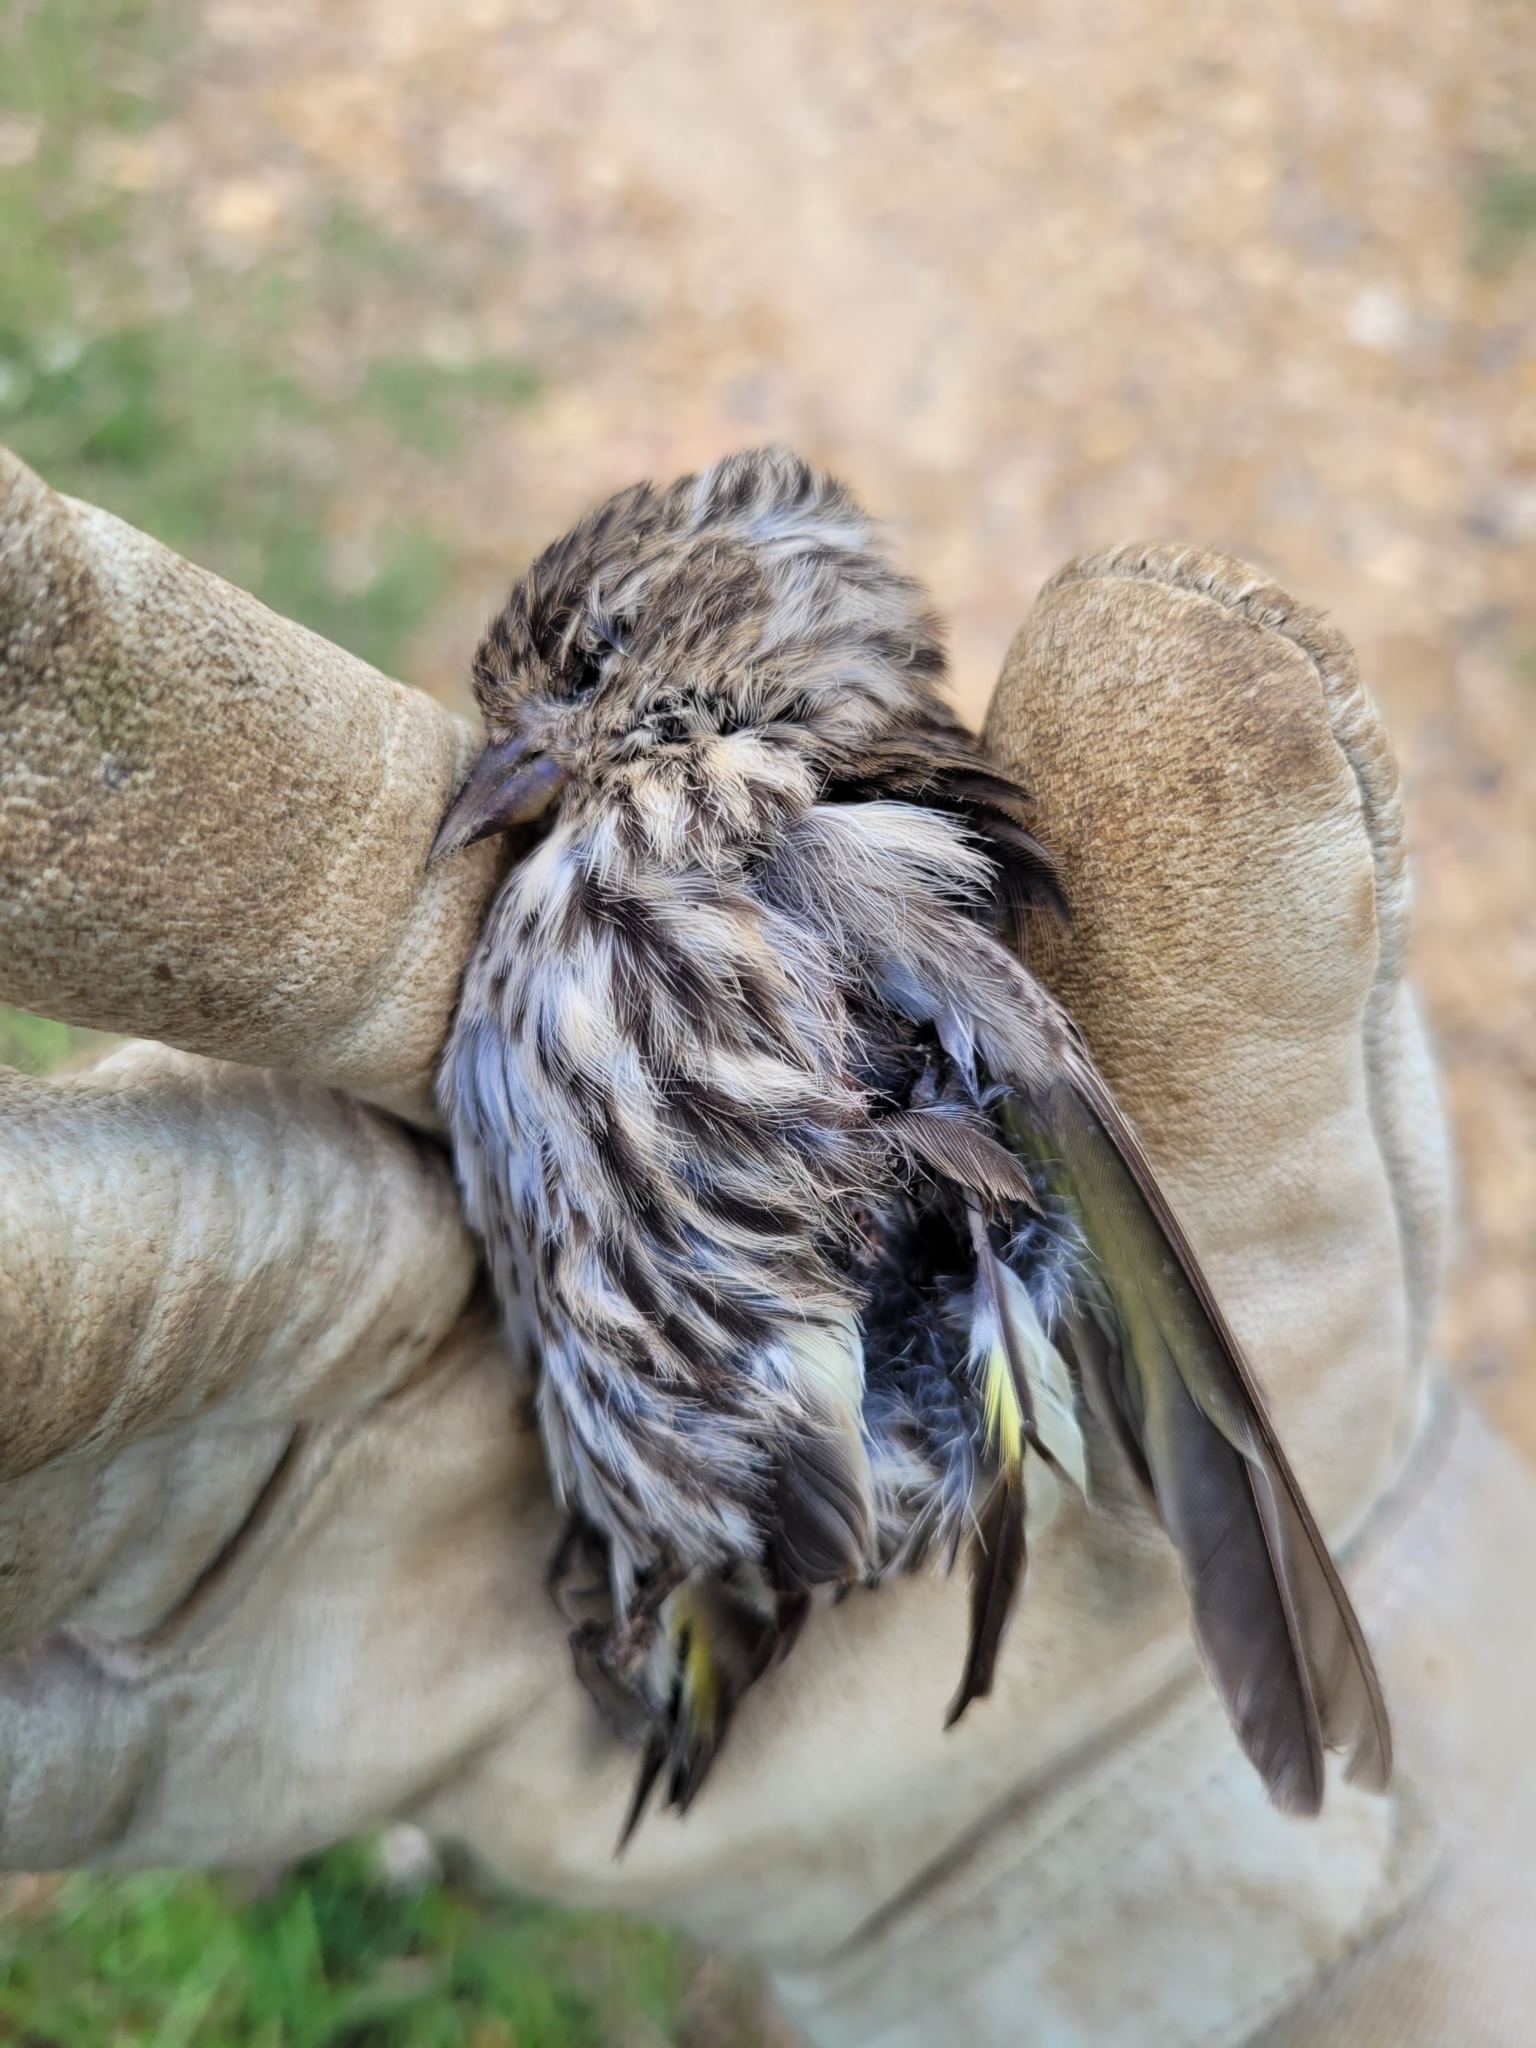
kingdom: Animalia
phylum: Chordata
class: Aves
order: Passeriformes
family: Fringillidae
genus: Spinus
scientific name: Spinus pinus
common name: Pine siskin
